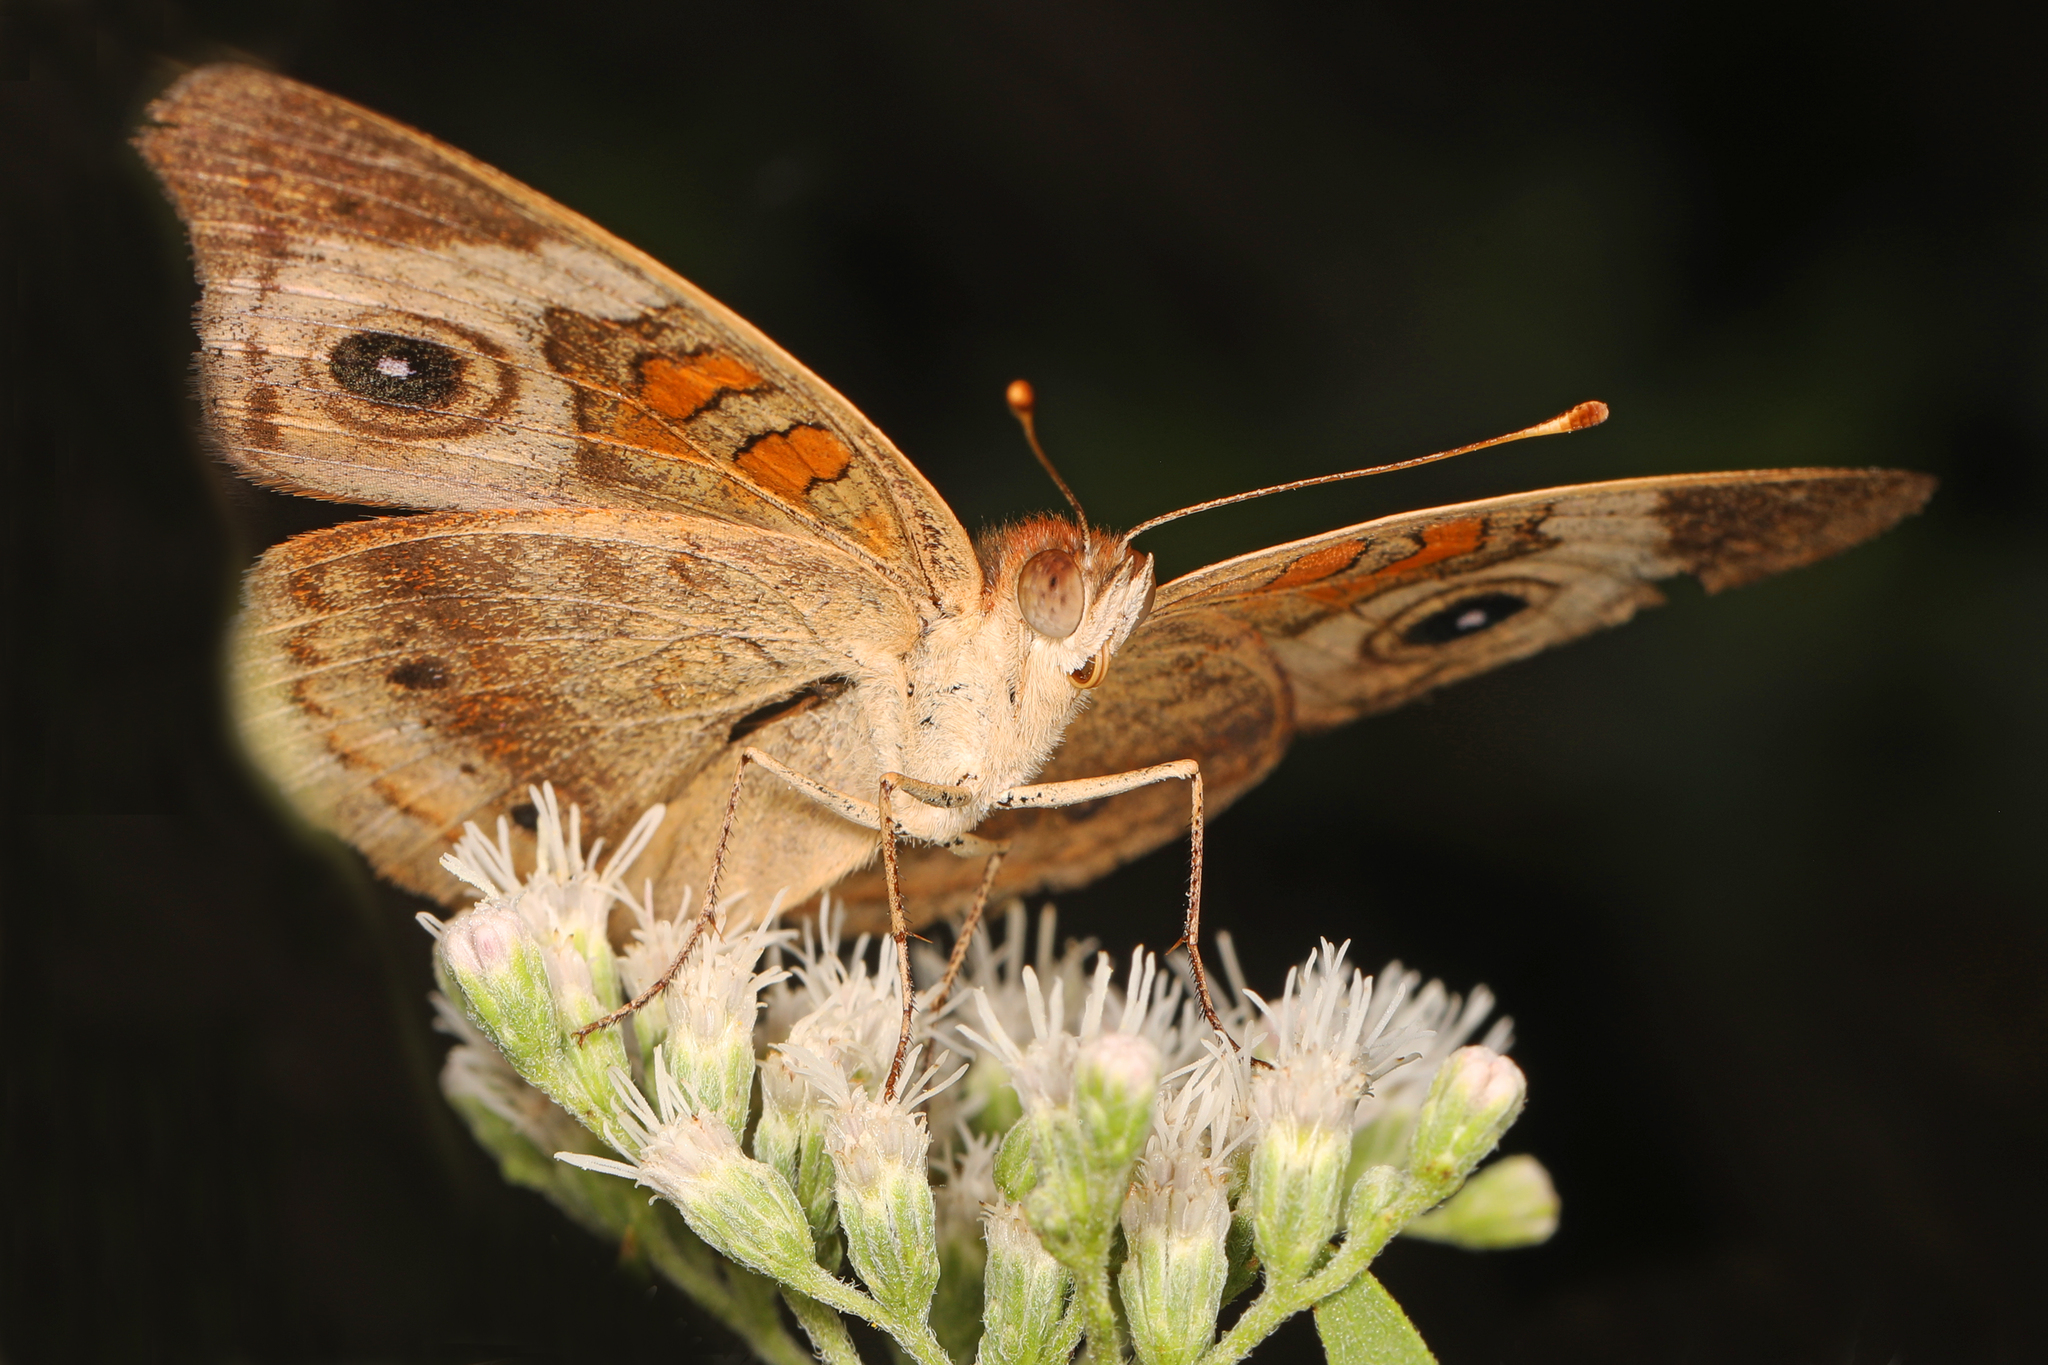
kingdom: Animalia
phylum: Arthropoda
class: Insecta
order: Lepidoptera
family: Nymphalidae
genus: Junonia
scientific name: Junonia coenia
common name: Common buckeye
